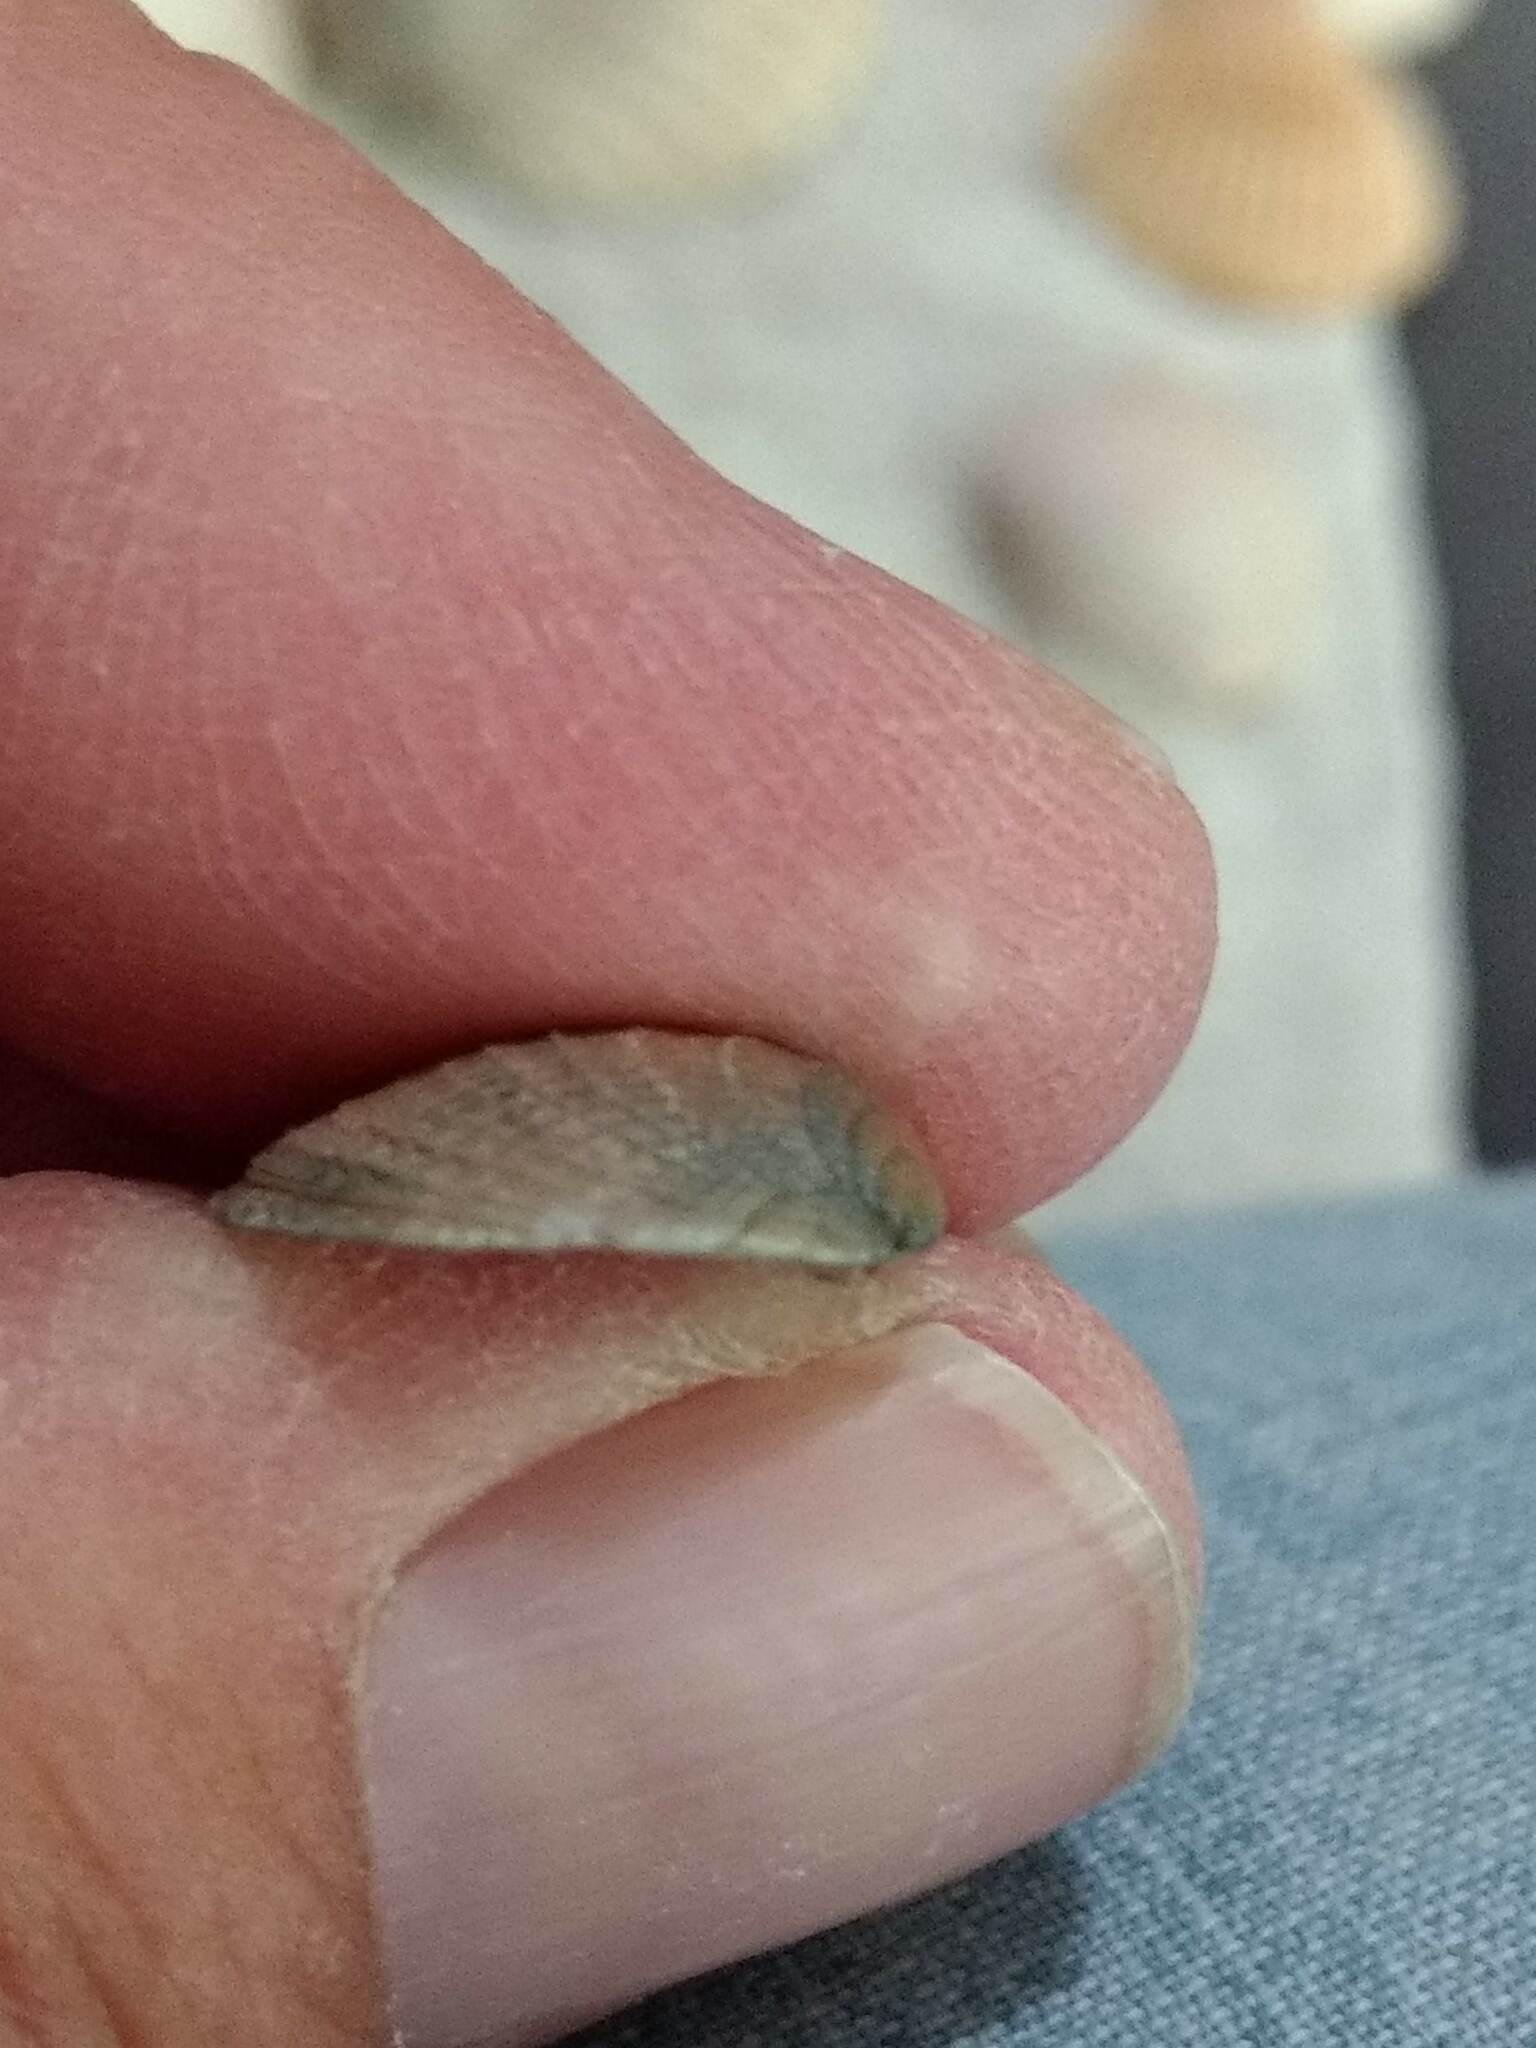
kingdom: Animalia
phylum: Mollusca
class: Bivalvia
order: Venerida
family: Veneridae
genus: Chione
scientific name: Chione elevata
